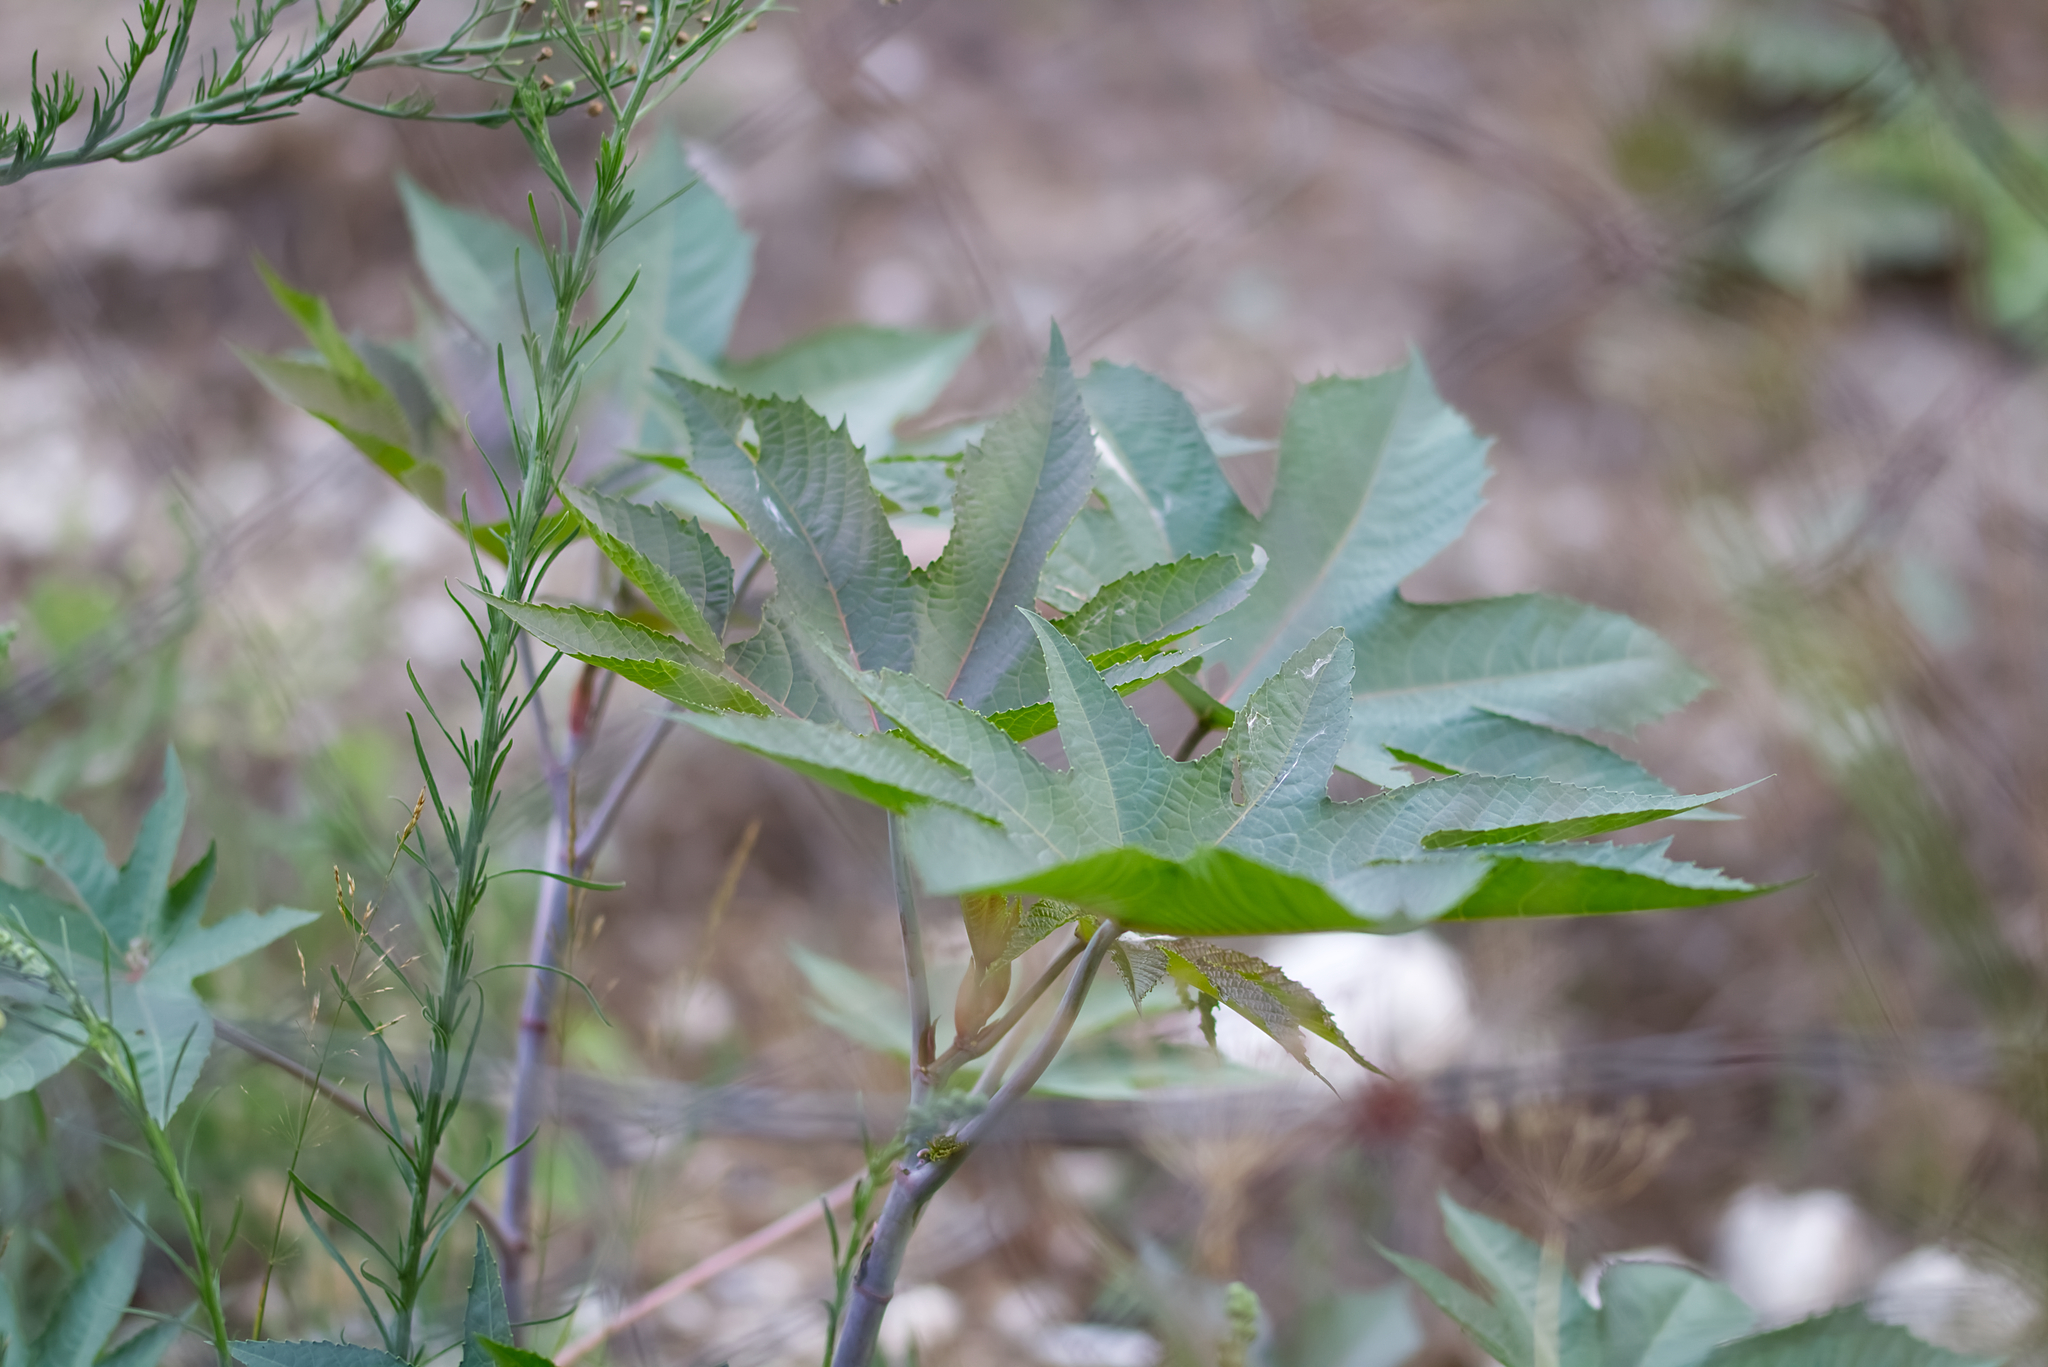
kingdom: Plantae
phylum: Tracheophyta
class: Magnoliopsida
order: Malpighiales
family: Euphorbiaceae
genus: Ricinus
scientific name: Ricinus communis
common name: Castor-oil-plant
